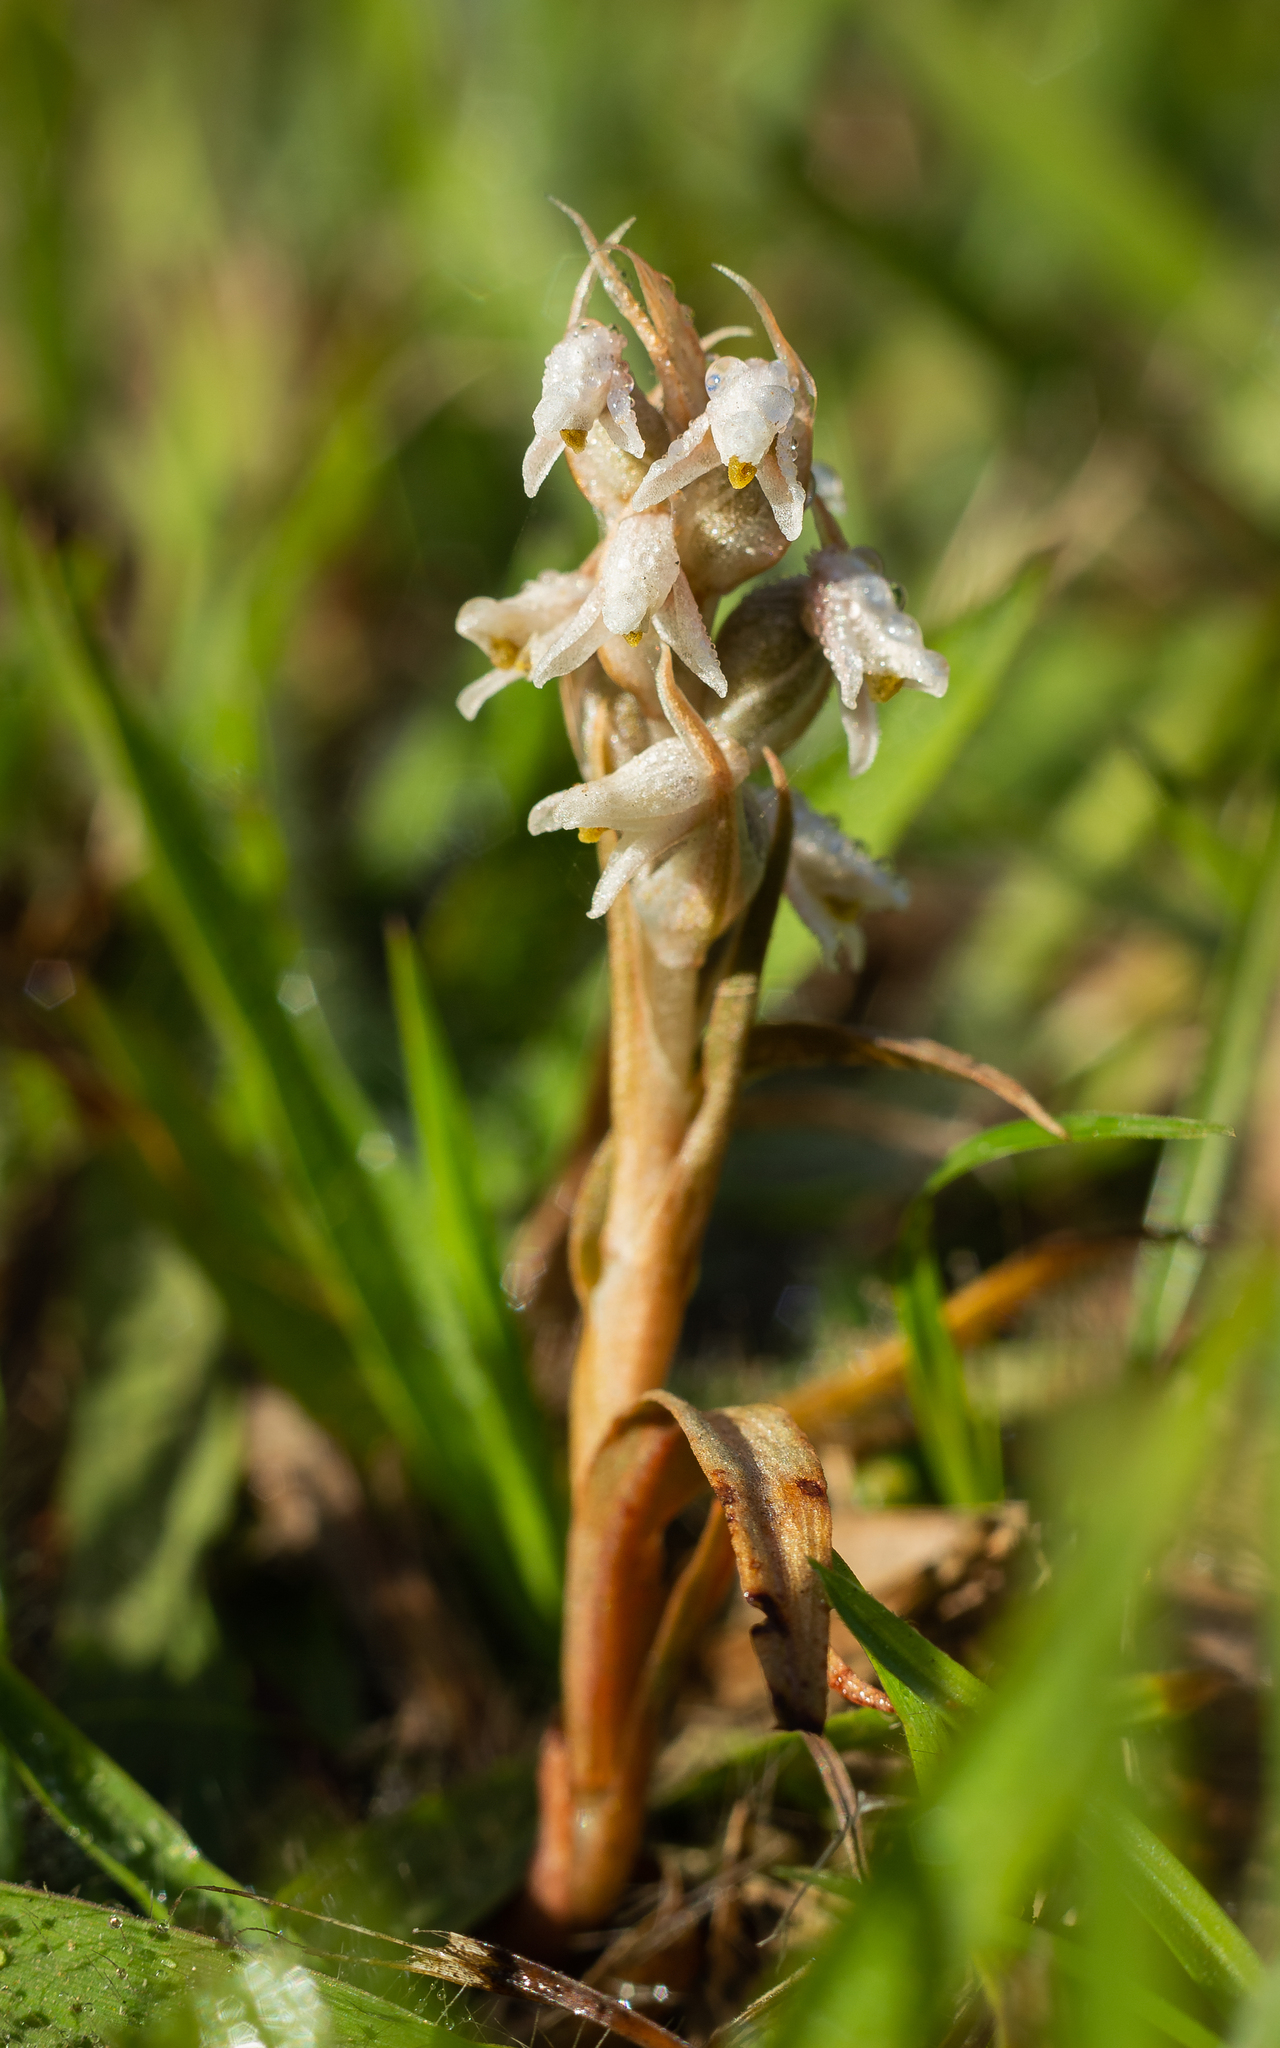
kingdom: Plantae
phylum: Tracheophyta
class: Liliopsida
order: Asparagales
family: Orchidaceae
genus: Zeuxine
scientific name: Zeuxine strateumatica
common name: Soldier's orchid
